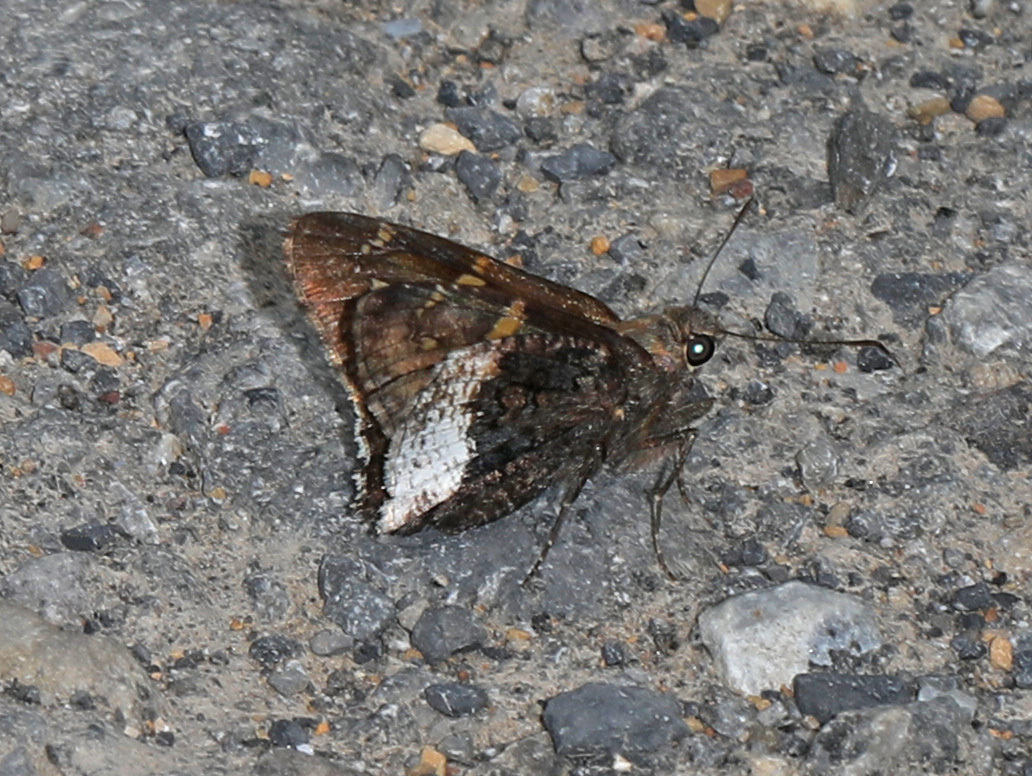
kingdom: Animalia
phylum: Arthropoda
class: Insecta
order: Lepidoptera
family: Hesperiidae
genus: Thorybes
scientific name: Thorybes lyciades
